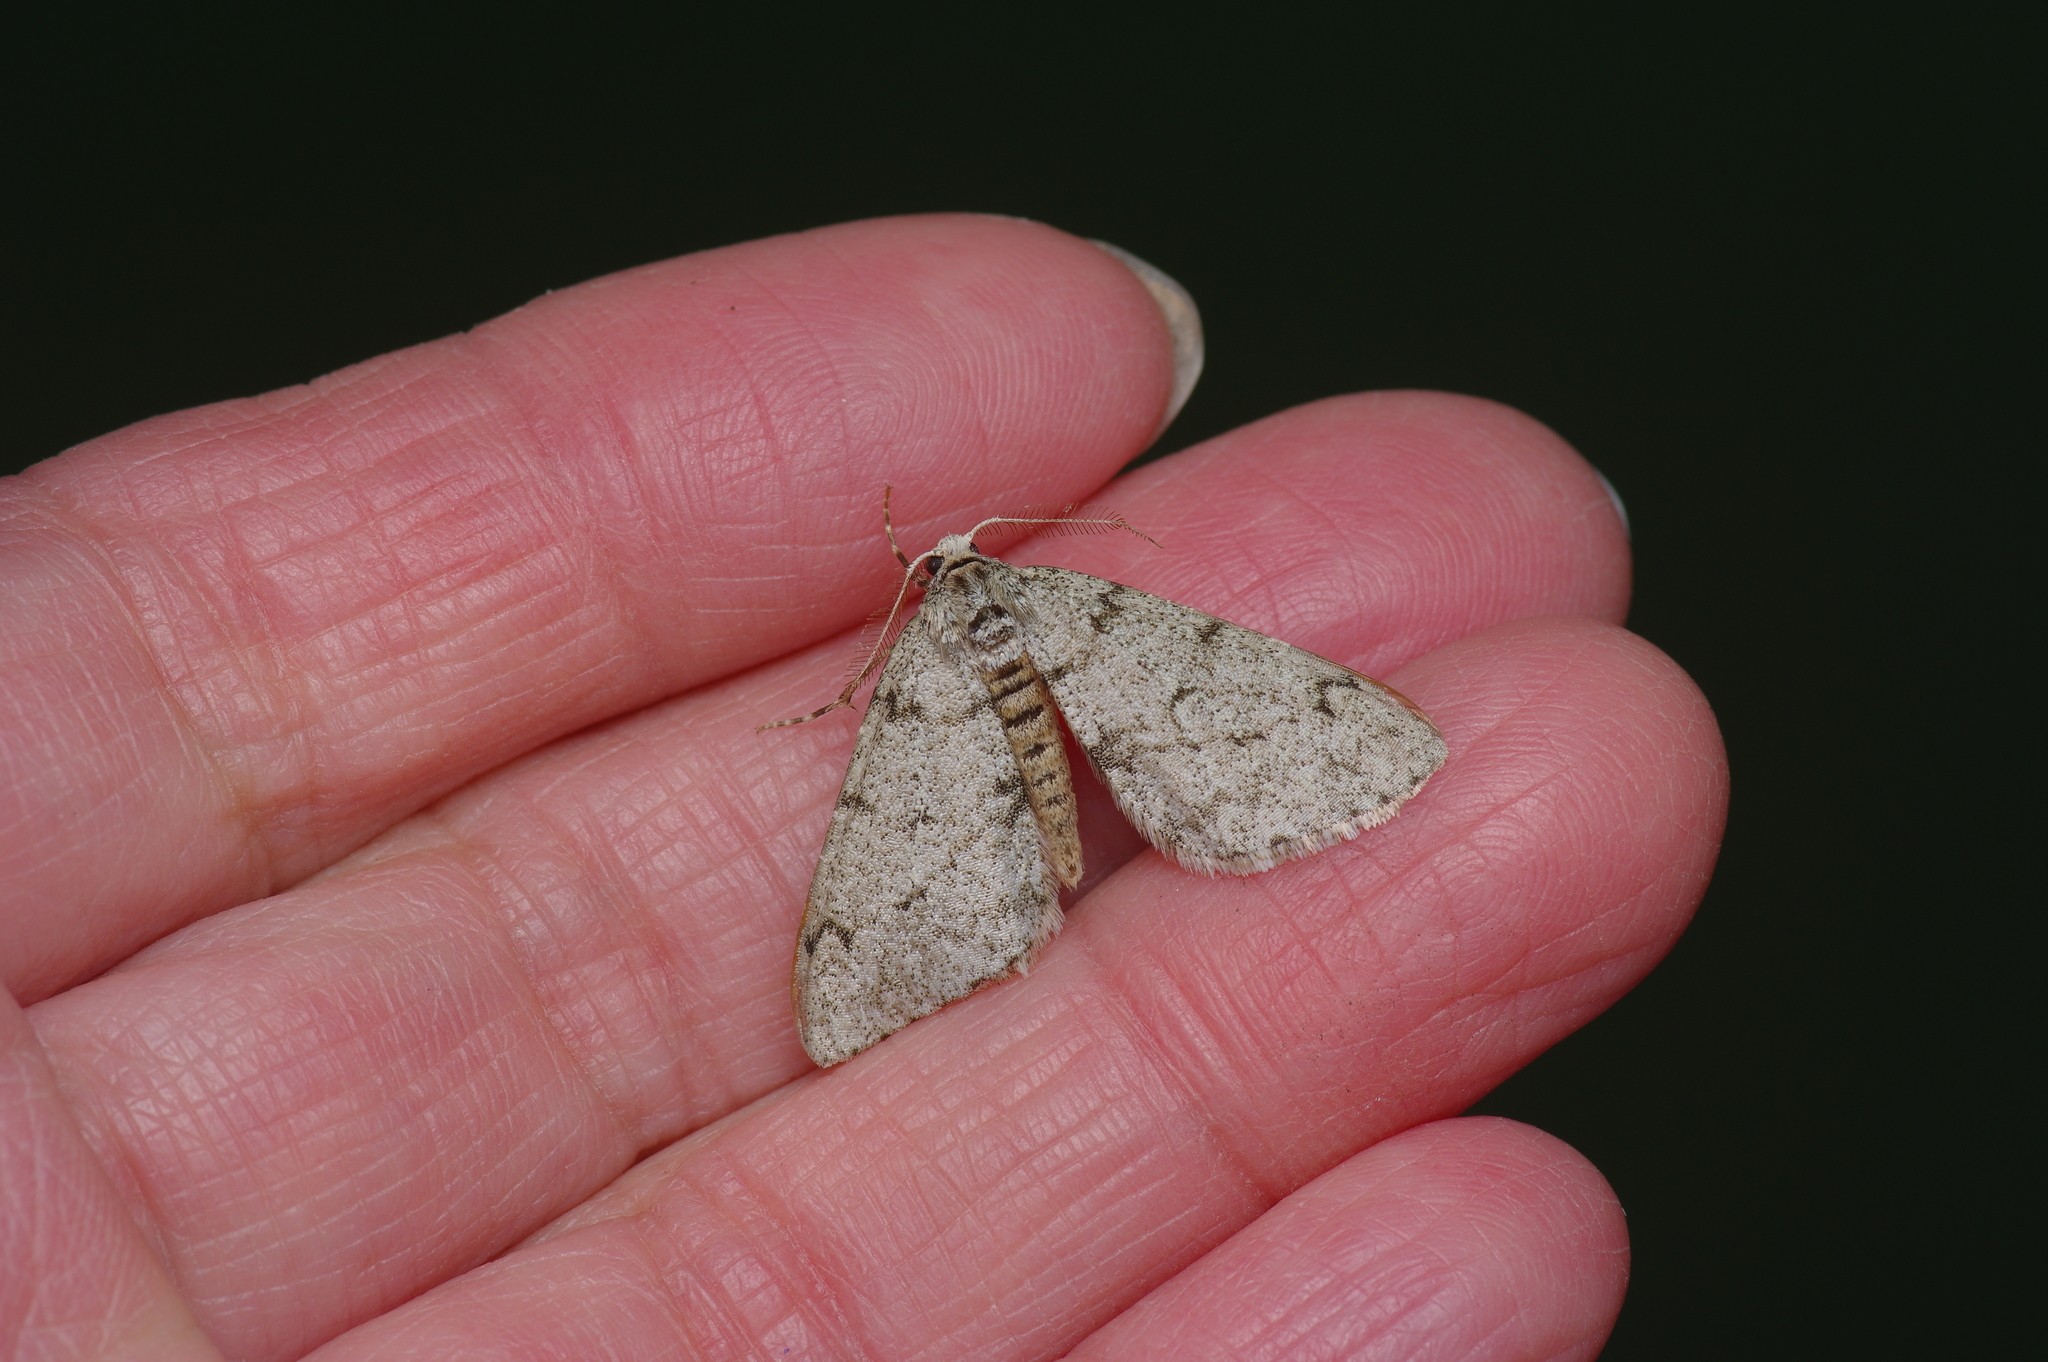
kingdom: Animalia
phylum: Arthropoda
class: Insecta
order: Lepidoptera
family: Geometridae
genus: Phigalia
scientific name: Phigalia strigataria
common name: Small phigalia
